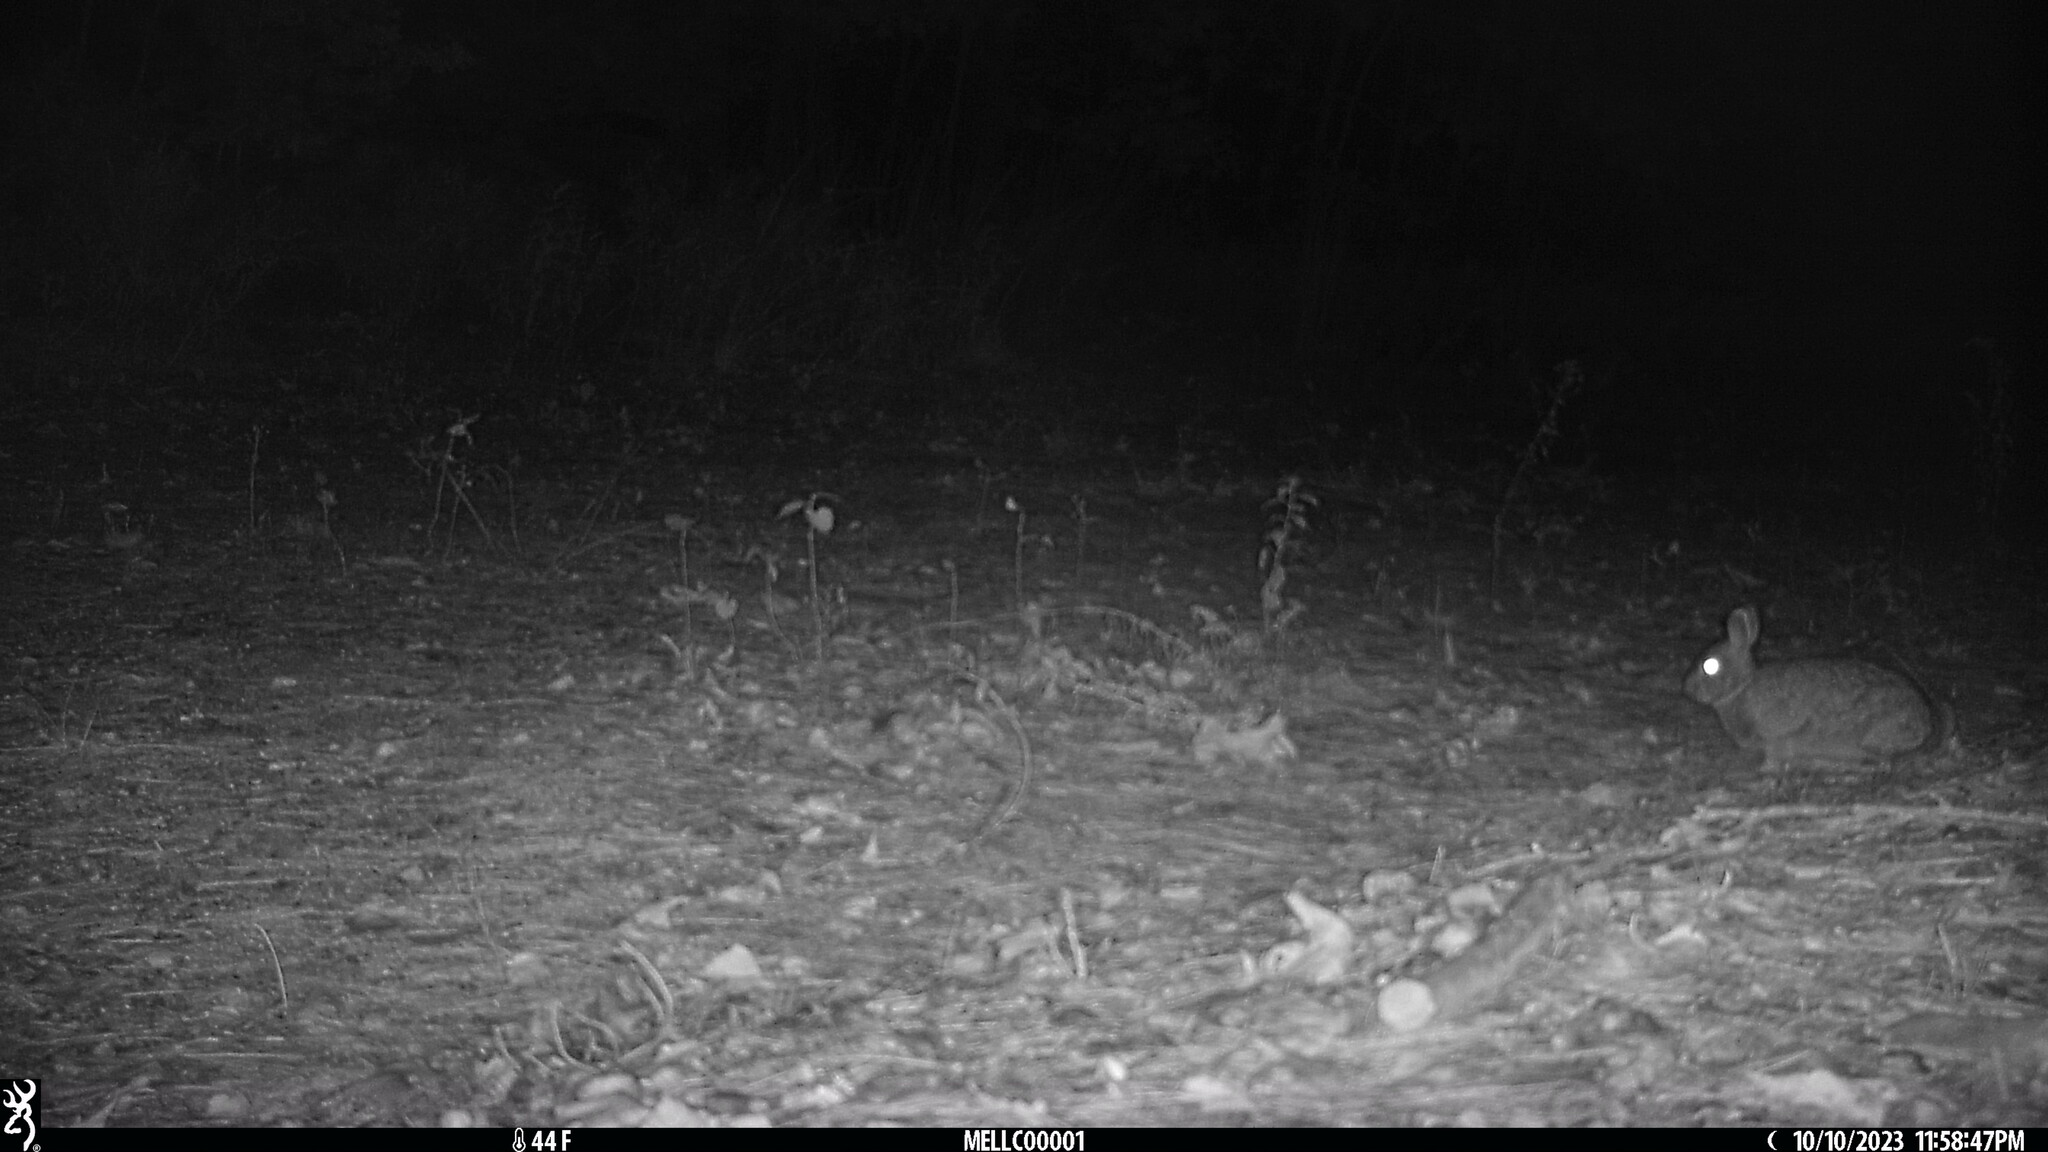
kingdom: Animalia
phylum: Chordata
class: Mammalia
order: Lagomorpha
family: Leporidae
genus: Sylvilagus
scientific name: Sylvilagus floridanus
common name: Eastern cottontail
